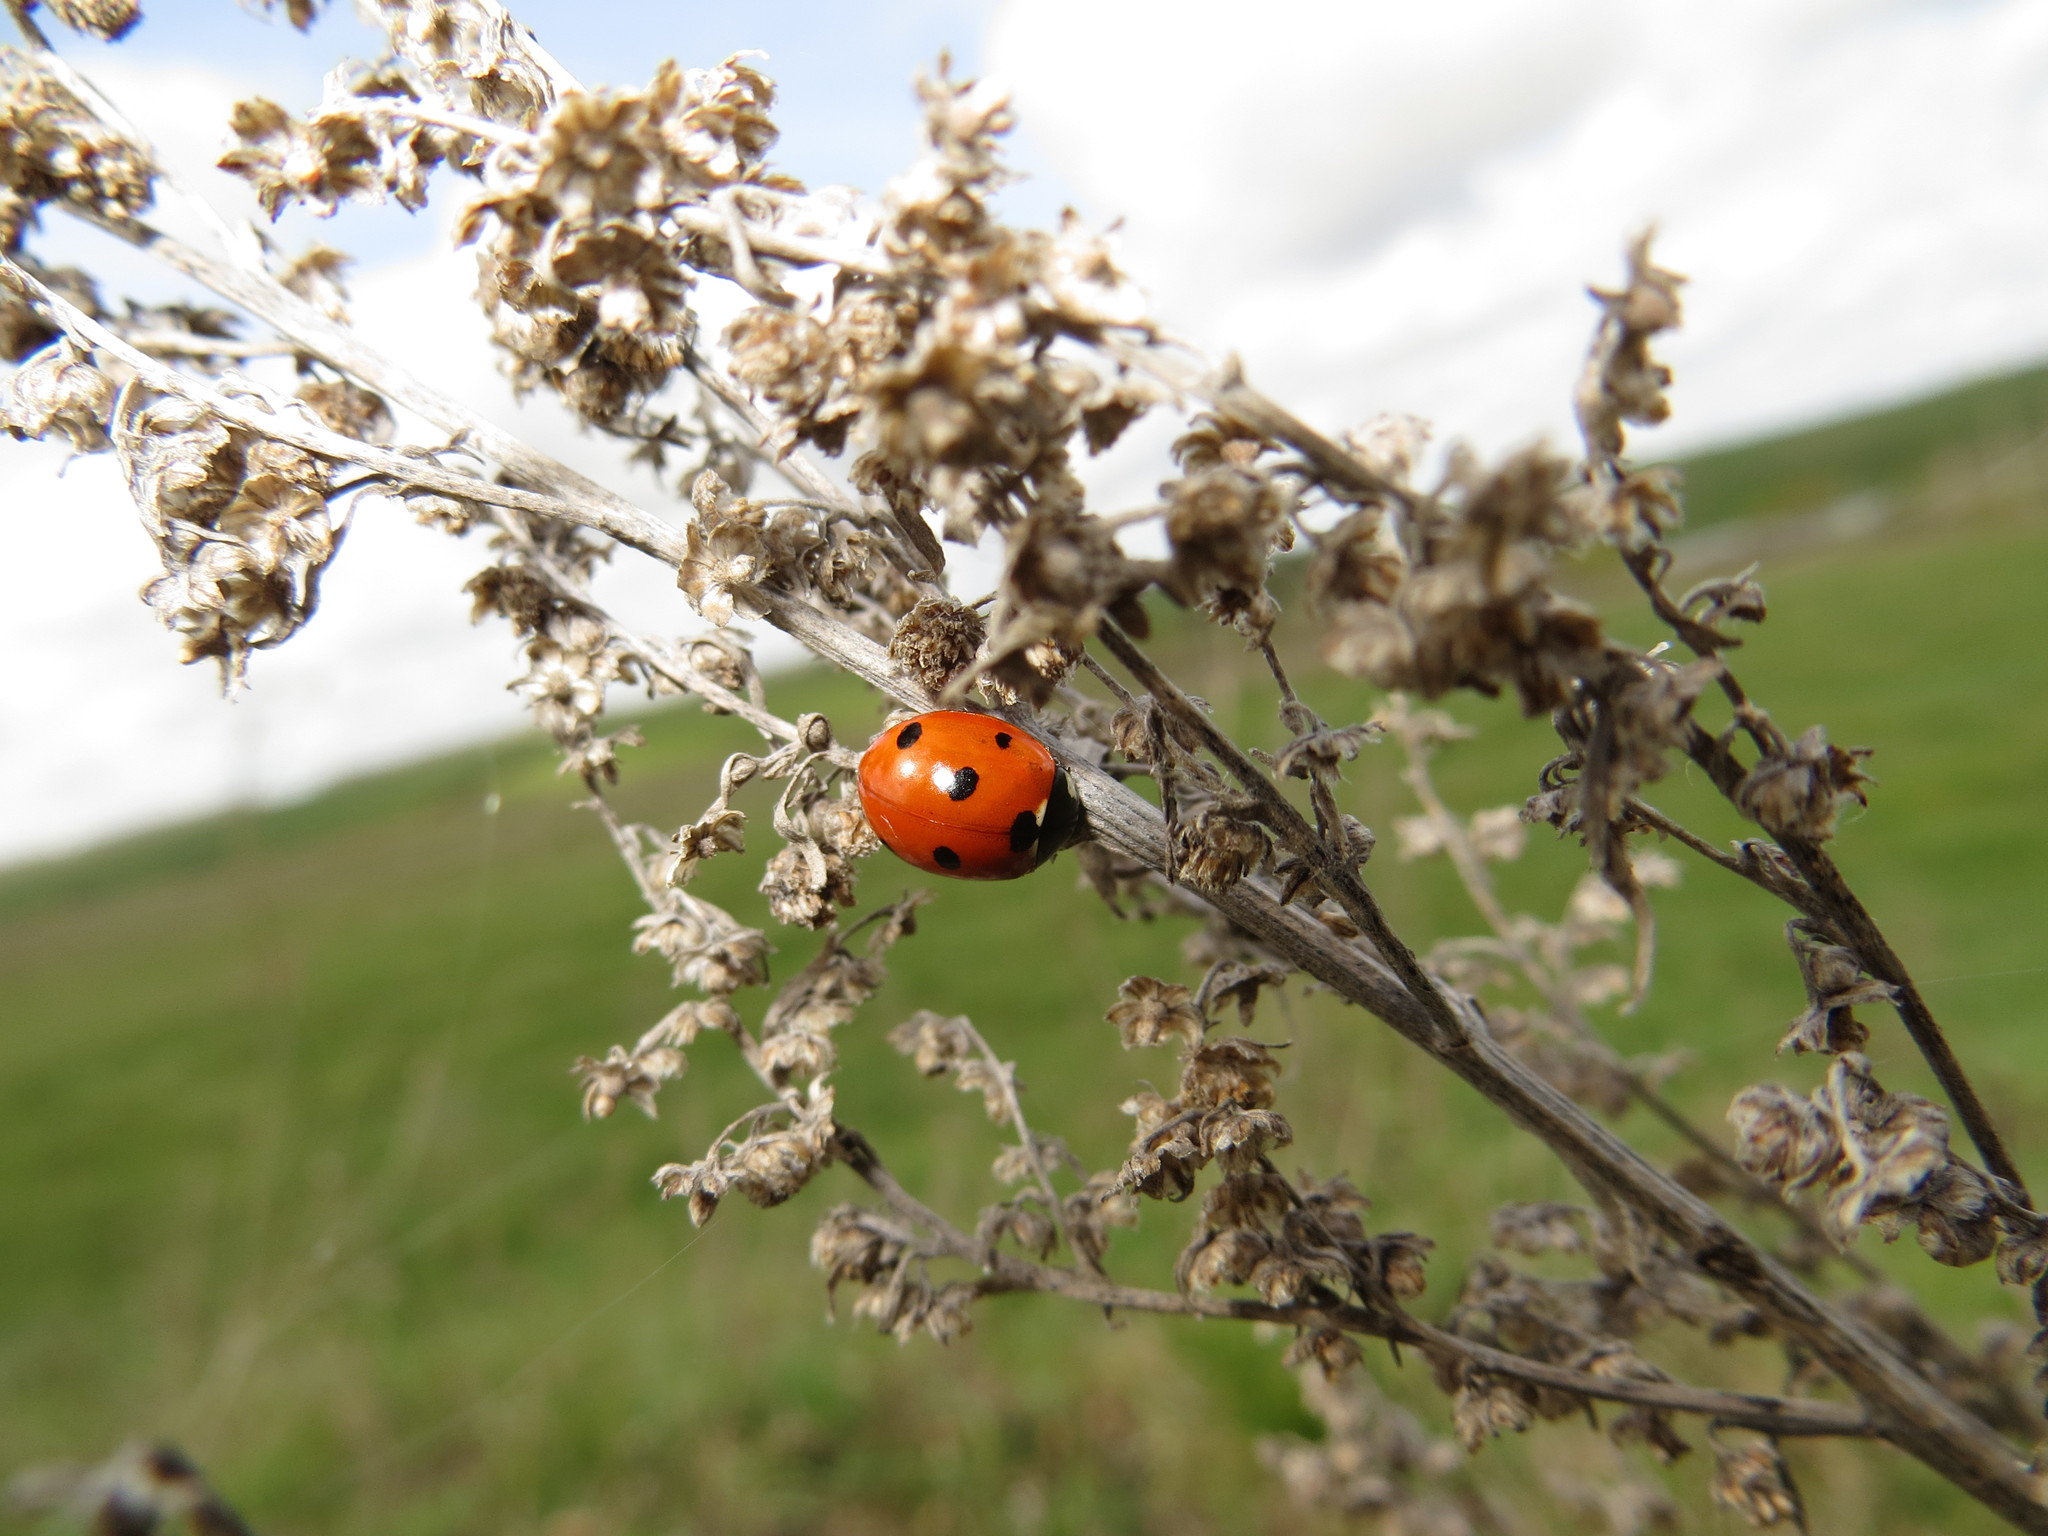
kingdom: Animalia
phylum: Arthropoda
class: Insecta
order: Coleoptera
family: Coccinellidae
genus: Coccinella
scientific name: Coccinella septempunctata
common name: Sevenspotted lady beetle
